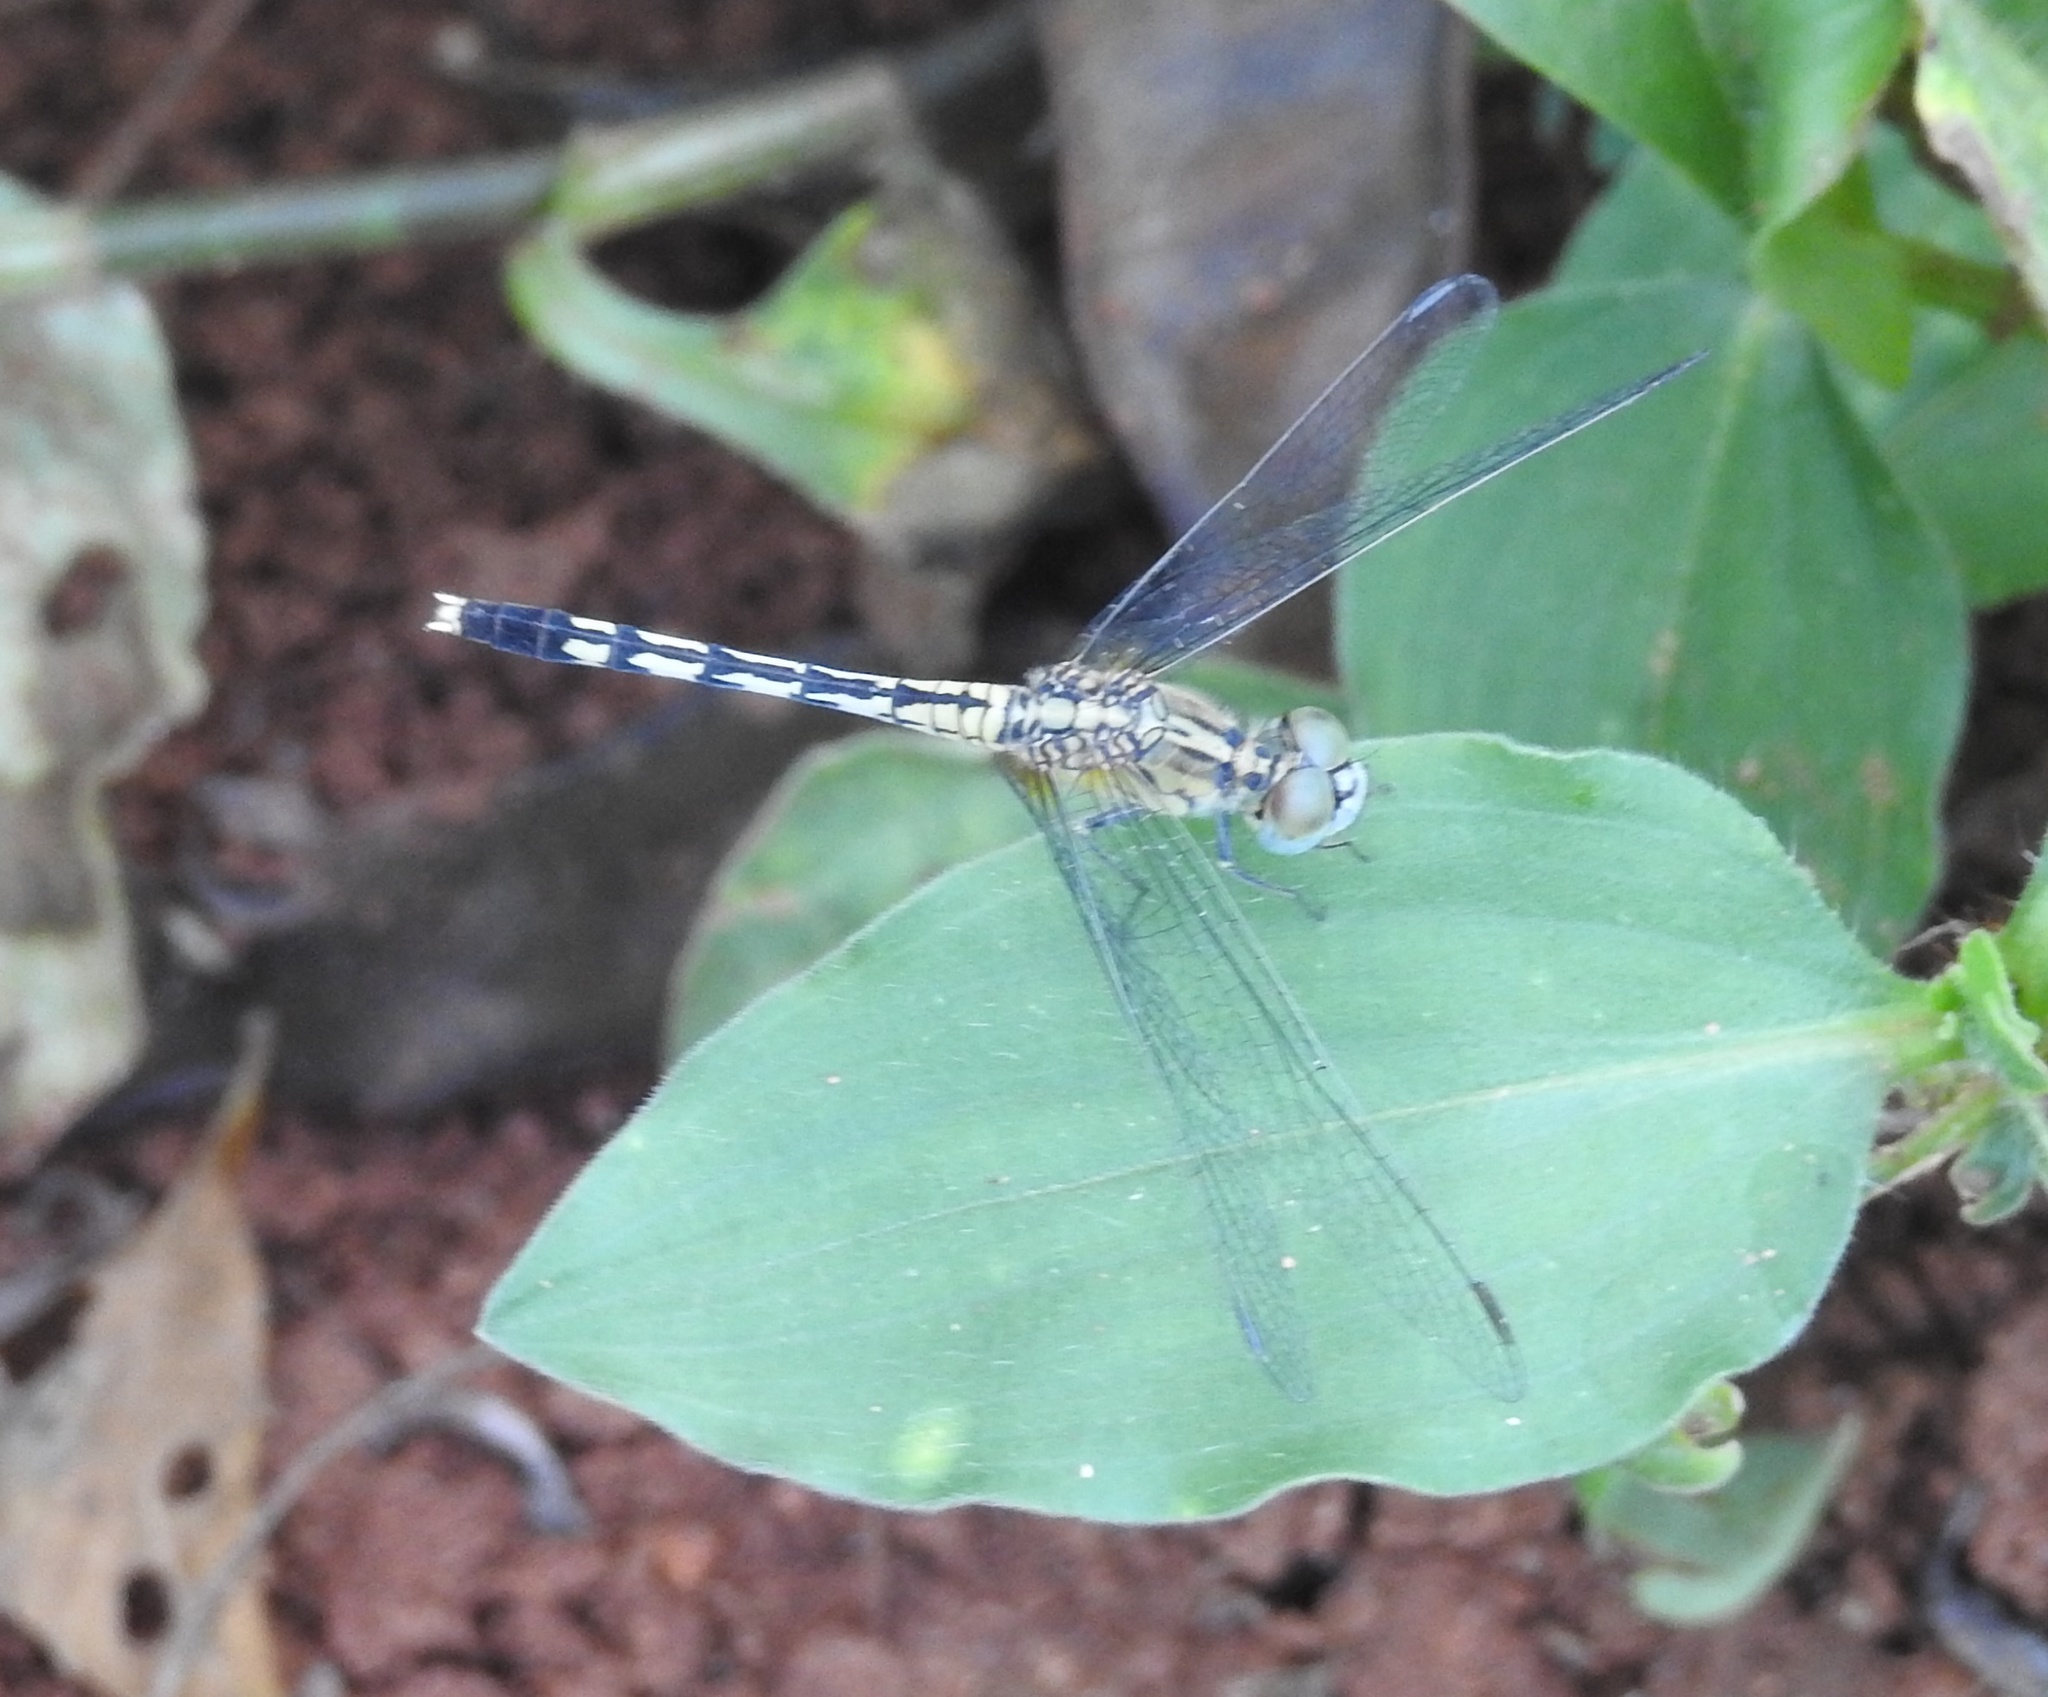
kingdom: Animalia
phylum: Arthropoda
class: Insecta
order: Odonata
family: Libellulidae
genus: Diplacodes
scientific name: Diplacodes trivialis
